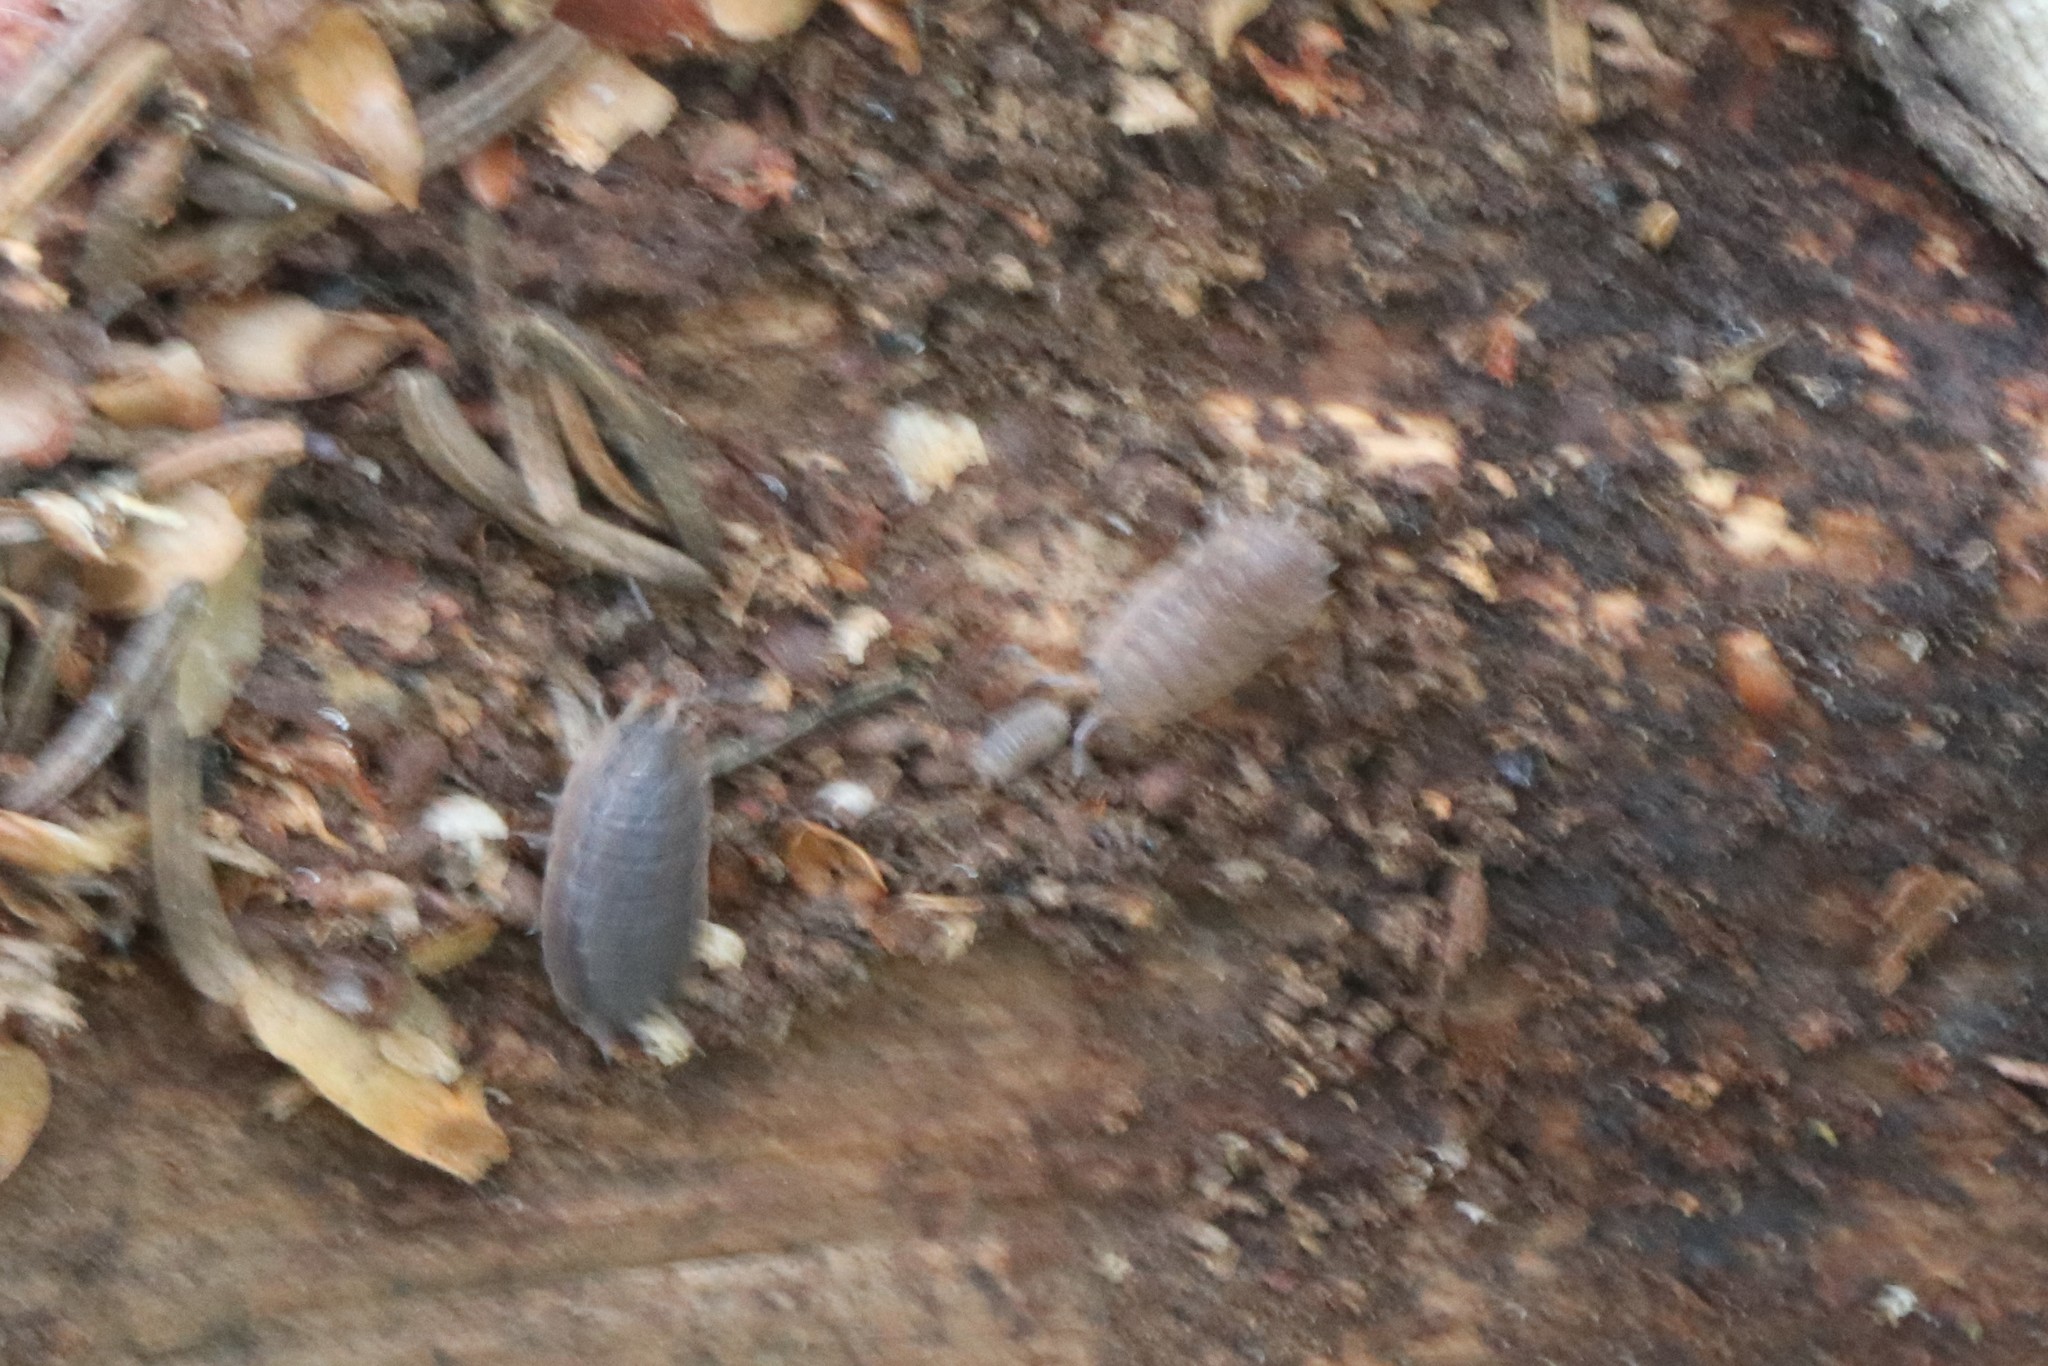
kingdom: Animalia
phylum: Arthropoda
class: Malacostraca
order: Isopoda
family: Porcellionidae
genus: Porcellio
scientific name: Porcellio scaber
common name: Common rough woodlouse
